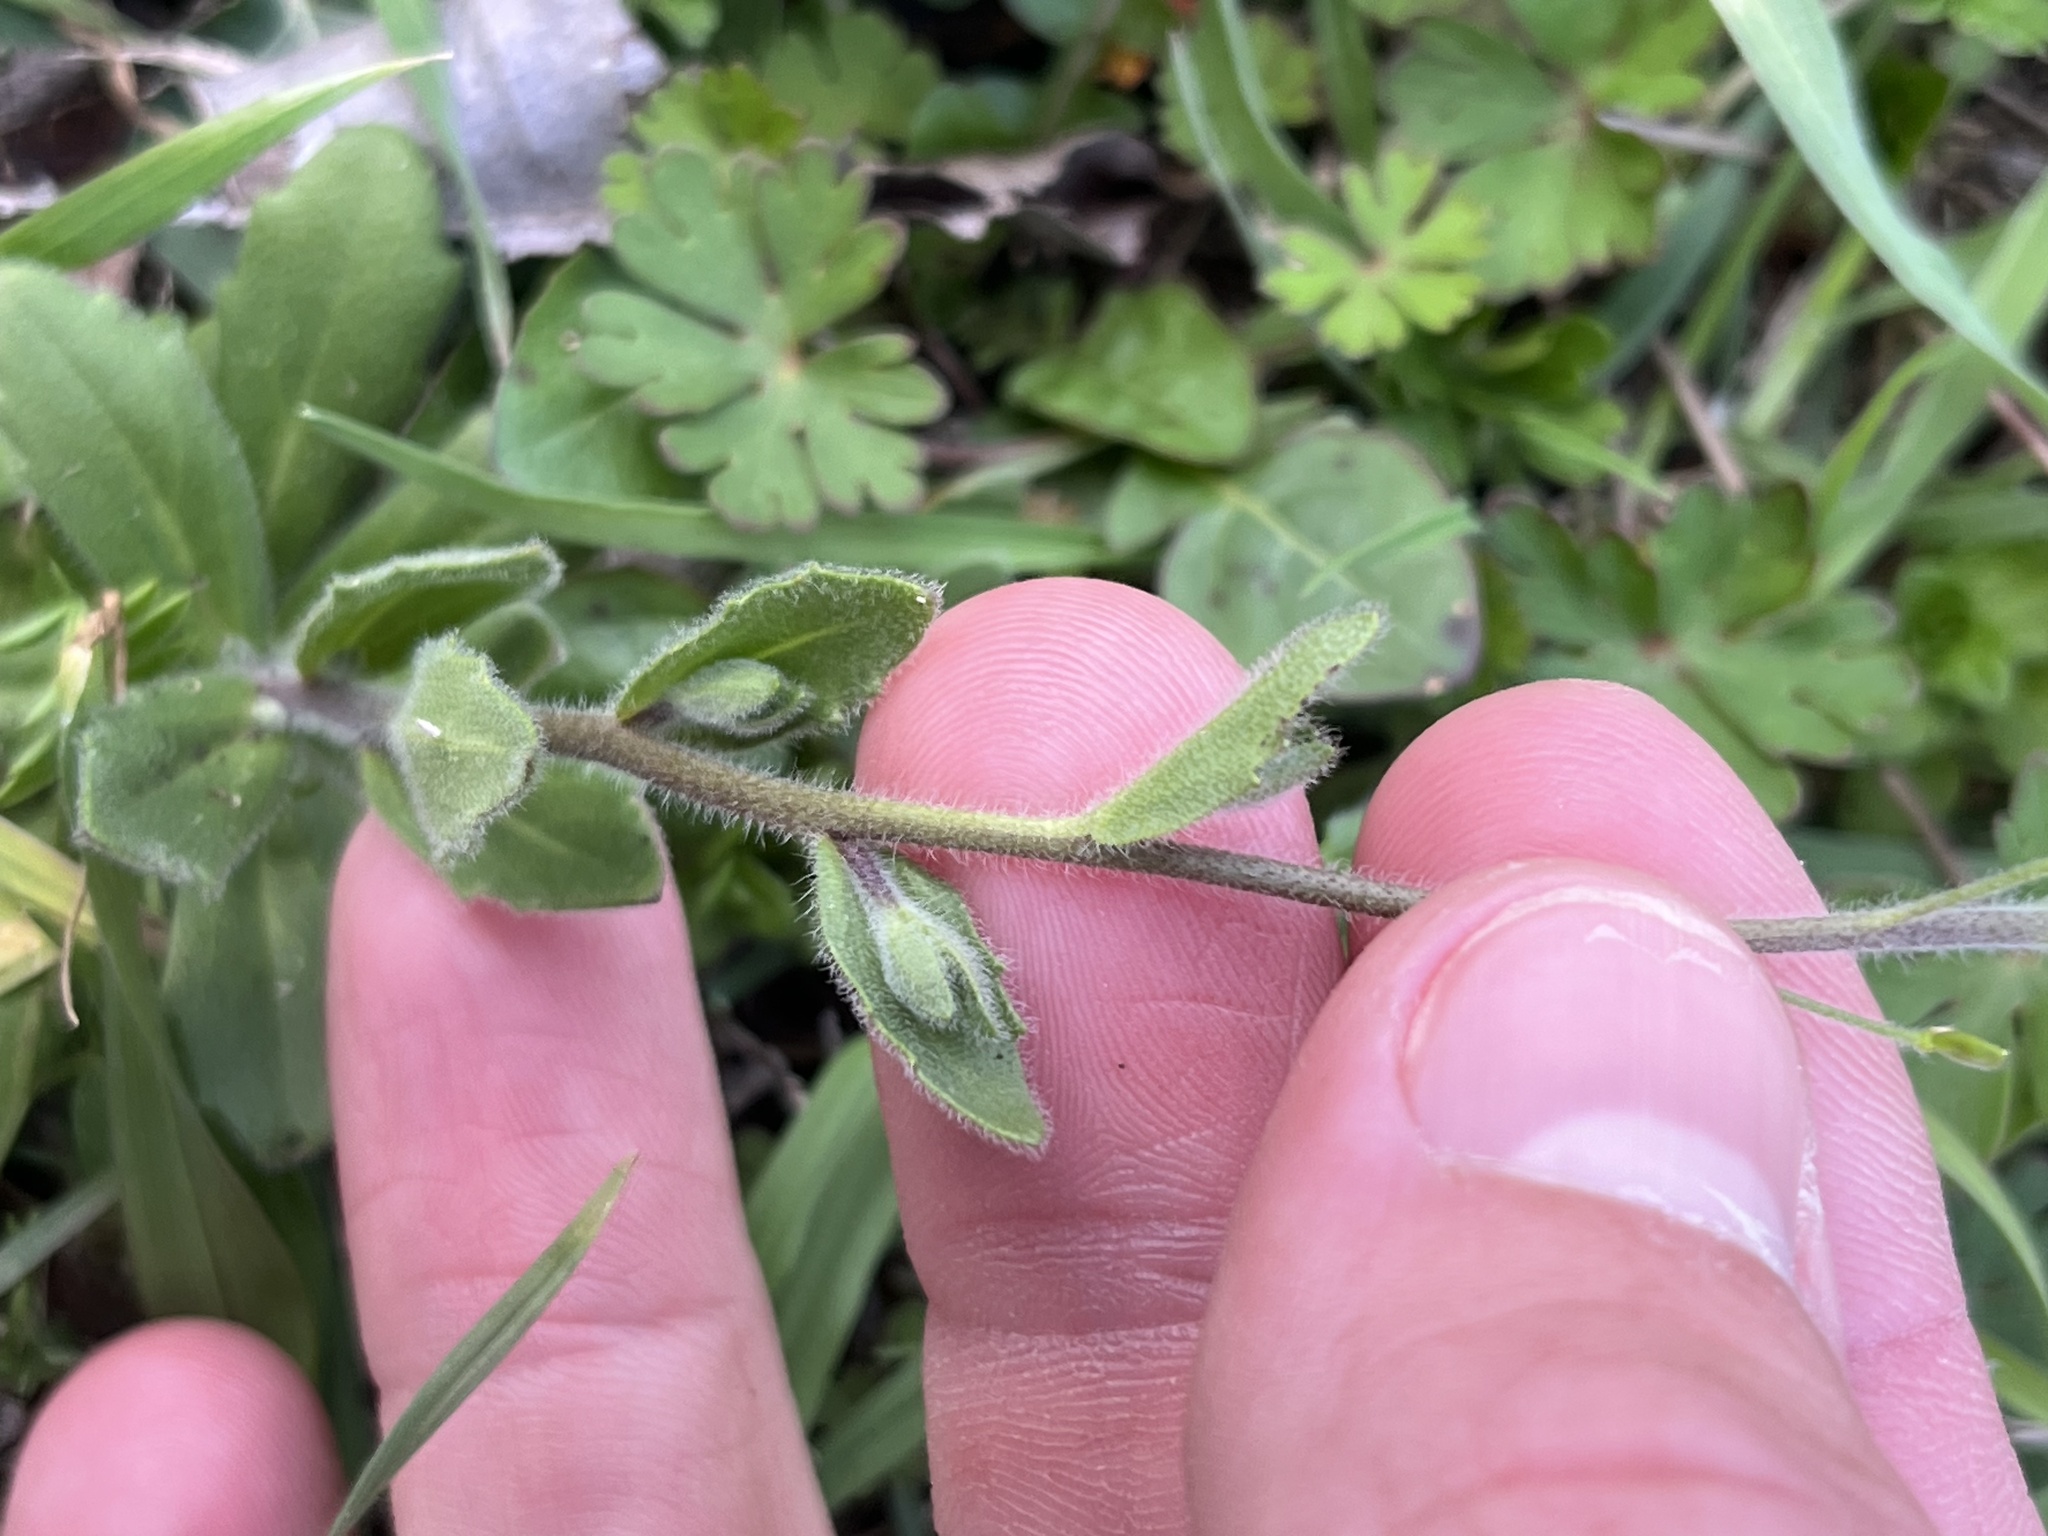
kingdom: Plantae
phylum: Tracheophyta
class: Magnoliopsida
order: Brassicales
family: Brassicaceae
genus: Tomostima
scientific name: Tomostima platycarpa
